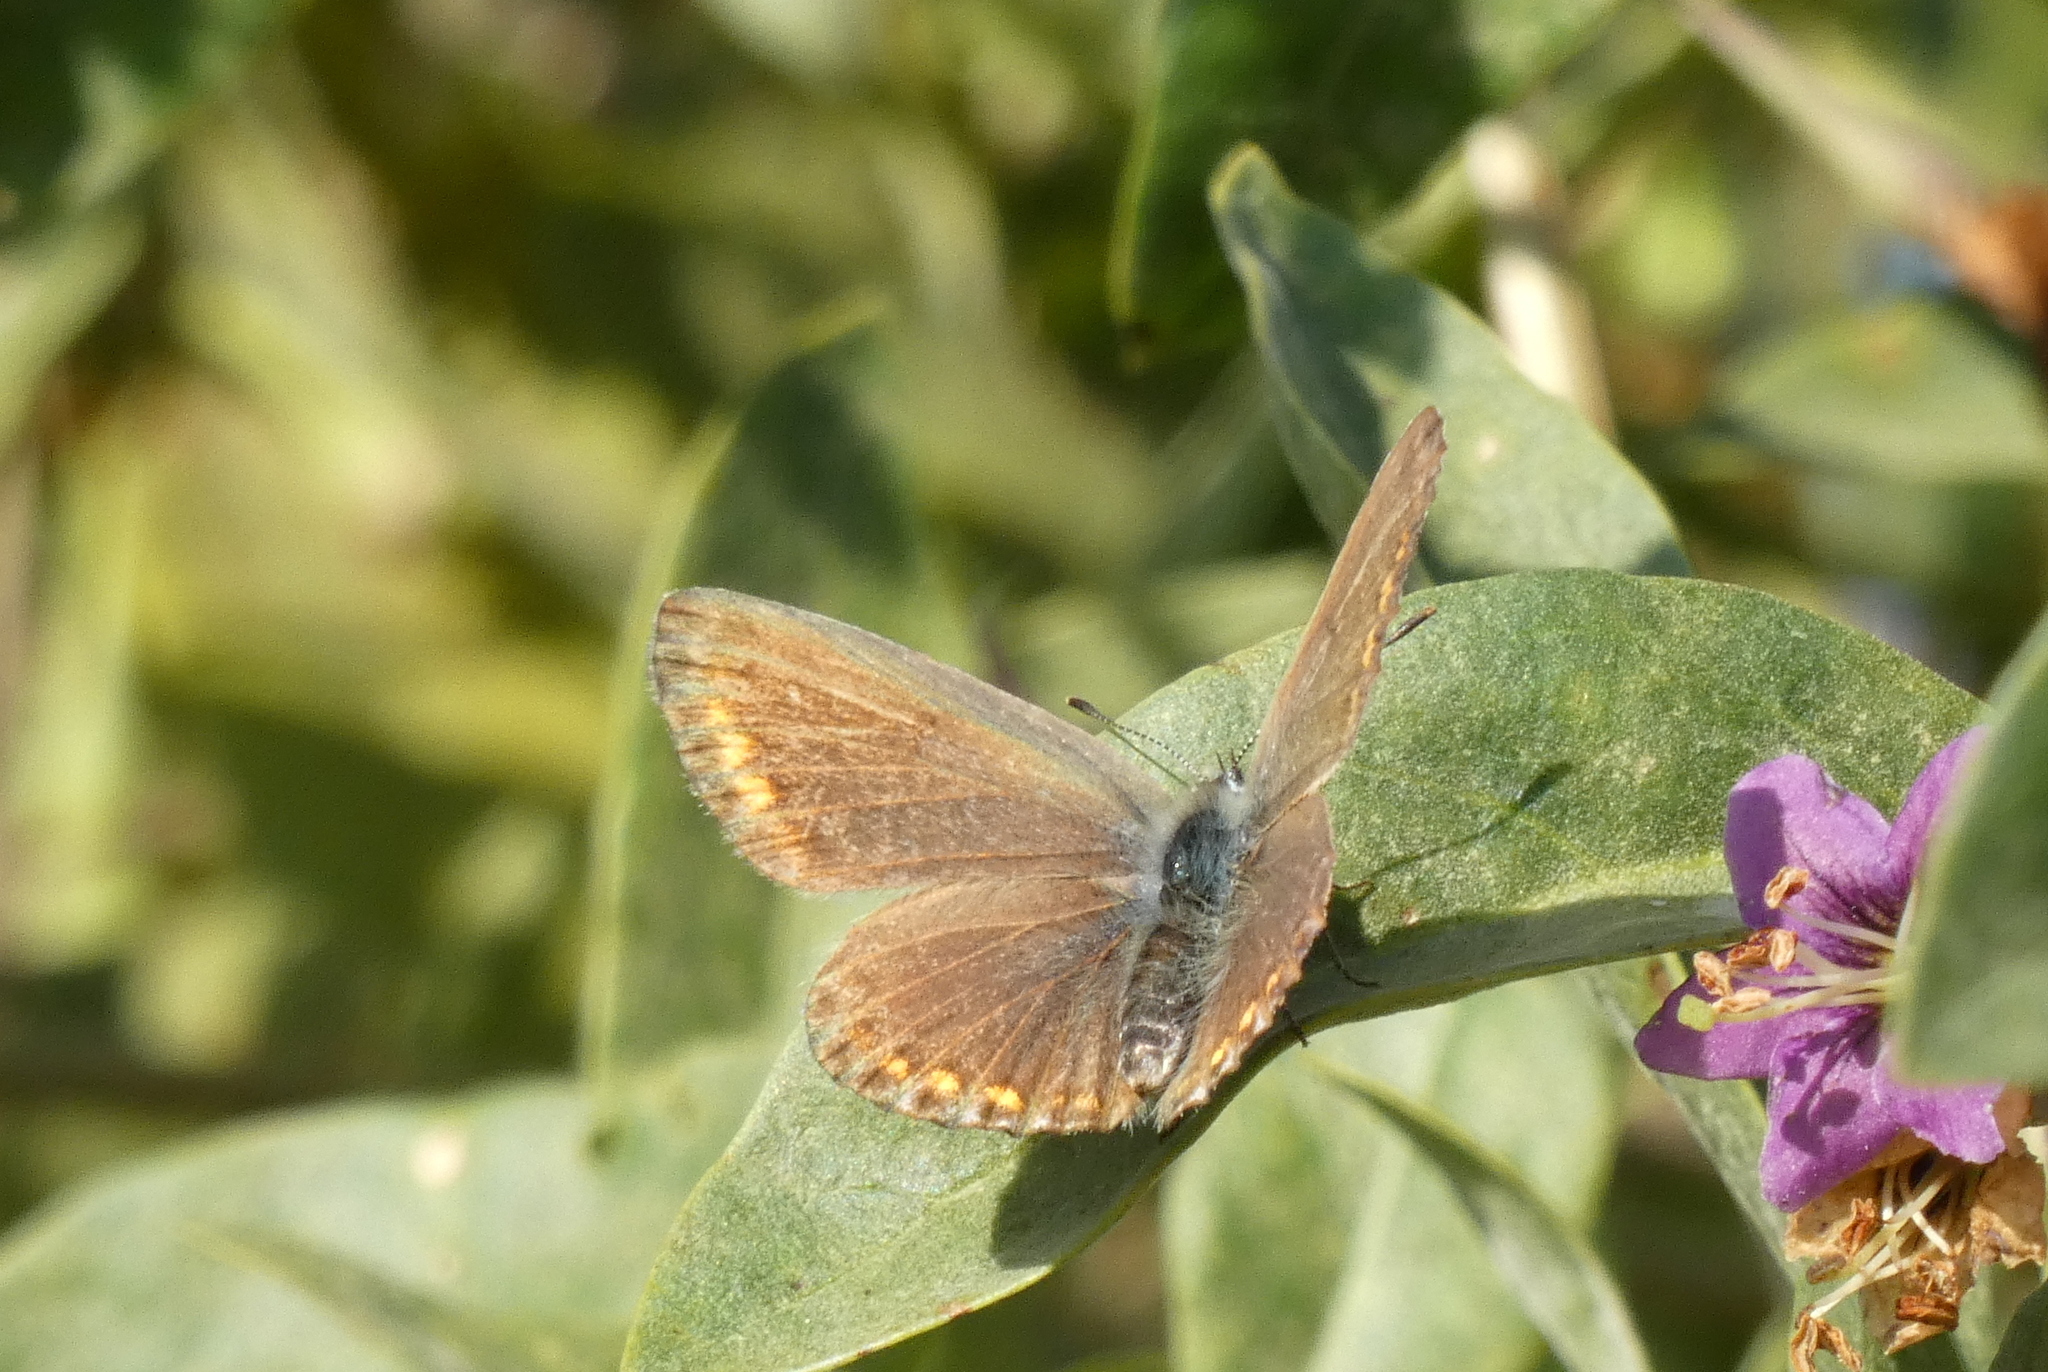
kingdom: Animalia
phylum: Arthropoda
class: Insecta
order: Lepidoptera
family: Lycaenidae
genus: Polyommatus
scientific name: Polyommatus icarus
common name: Common blue
